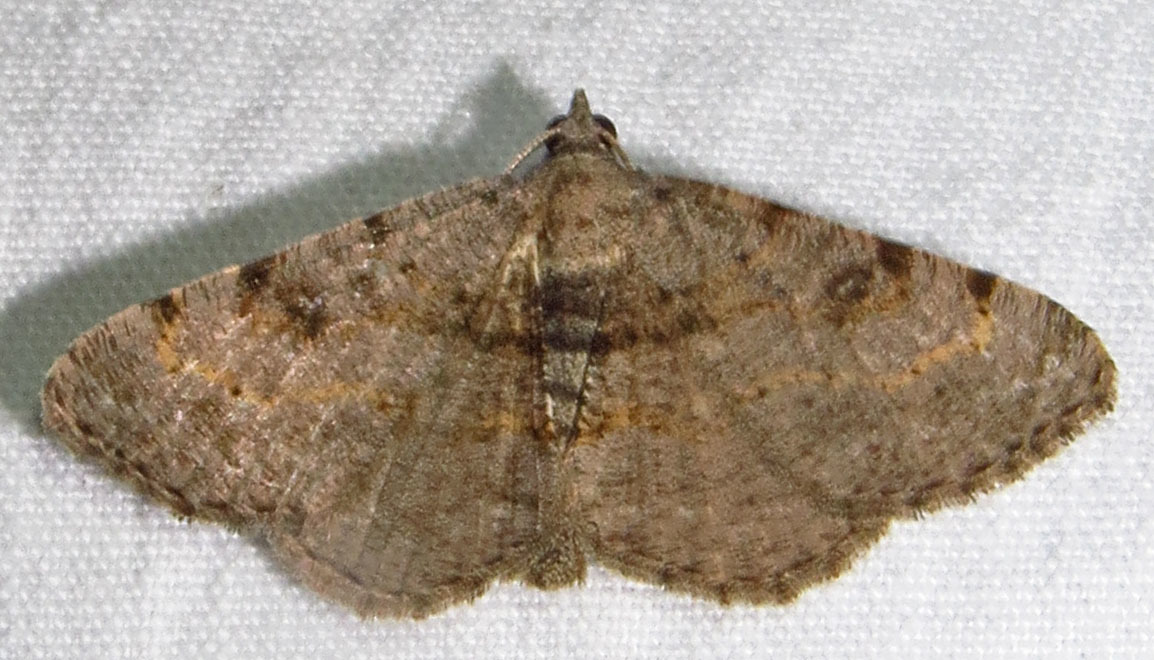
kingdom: Animalia
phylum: Arthropoda
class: Insecta
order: Lepidoptera
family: Geometridae
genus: Digrammia
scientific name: Digrammia gnophosaria
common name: Hollow-spotted angle
